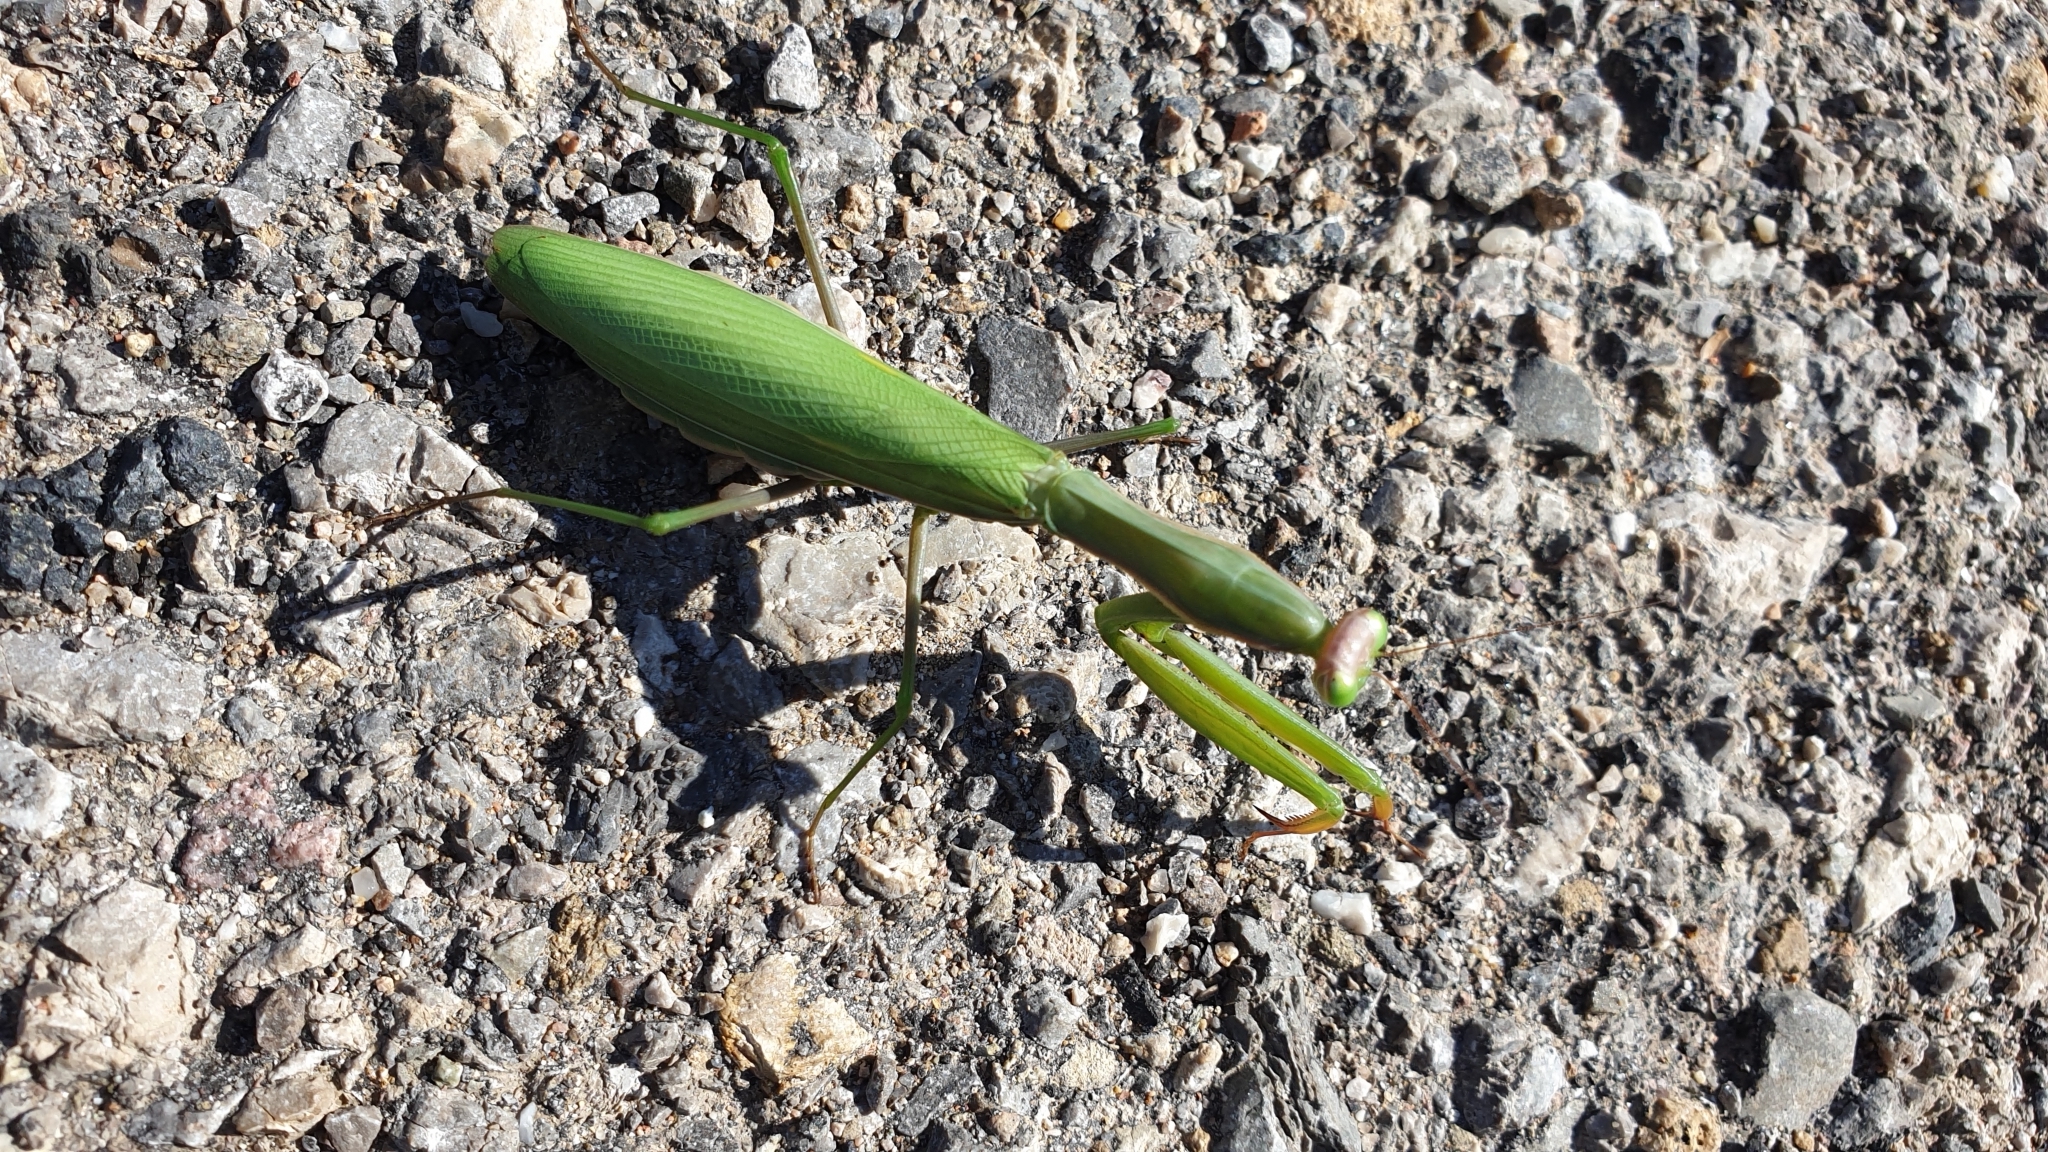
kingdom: Animalia
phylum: Arthropoda
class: Insecta
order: Mantodea
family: Mantidae
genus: Mantis
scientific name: Mantis religiosa
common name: Praying mantis
